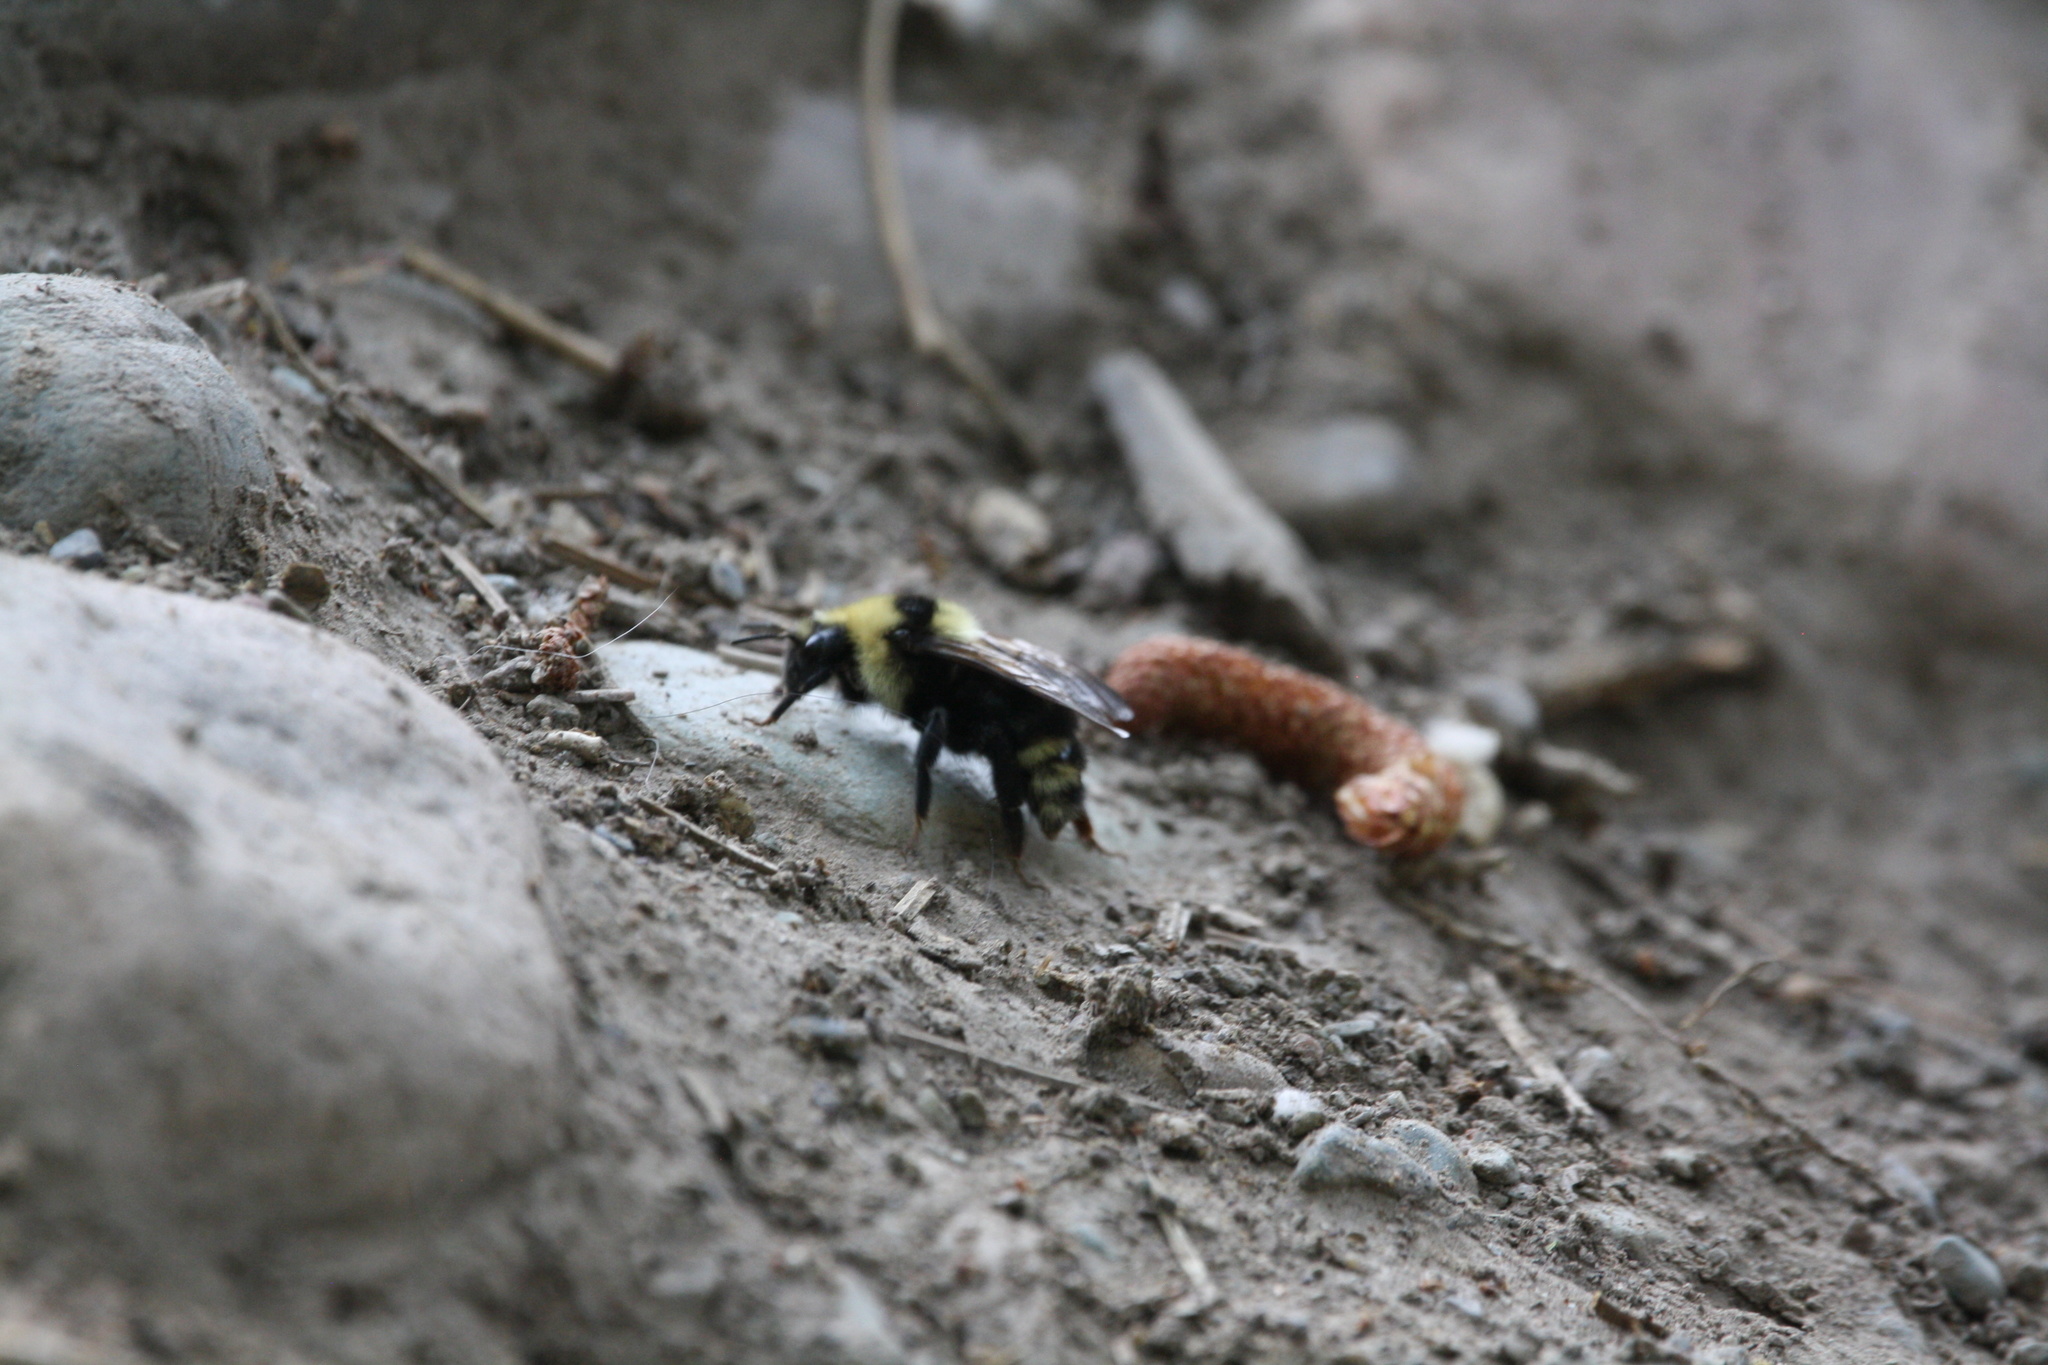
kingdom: Animalia
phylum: Arthropoda
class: Insecta
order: Hymenoptera
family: Apidae
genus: Bombus
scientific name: Bombus insularis
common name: Indiscriminate cuckoo bumble bee
